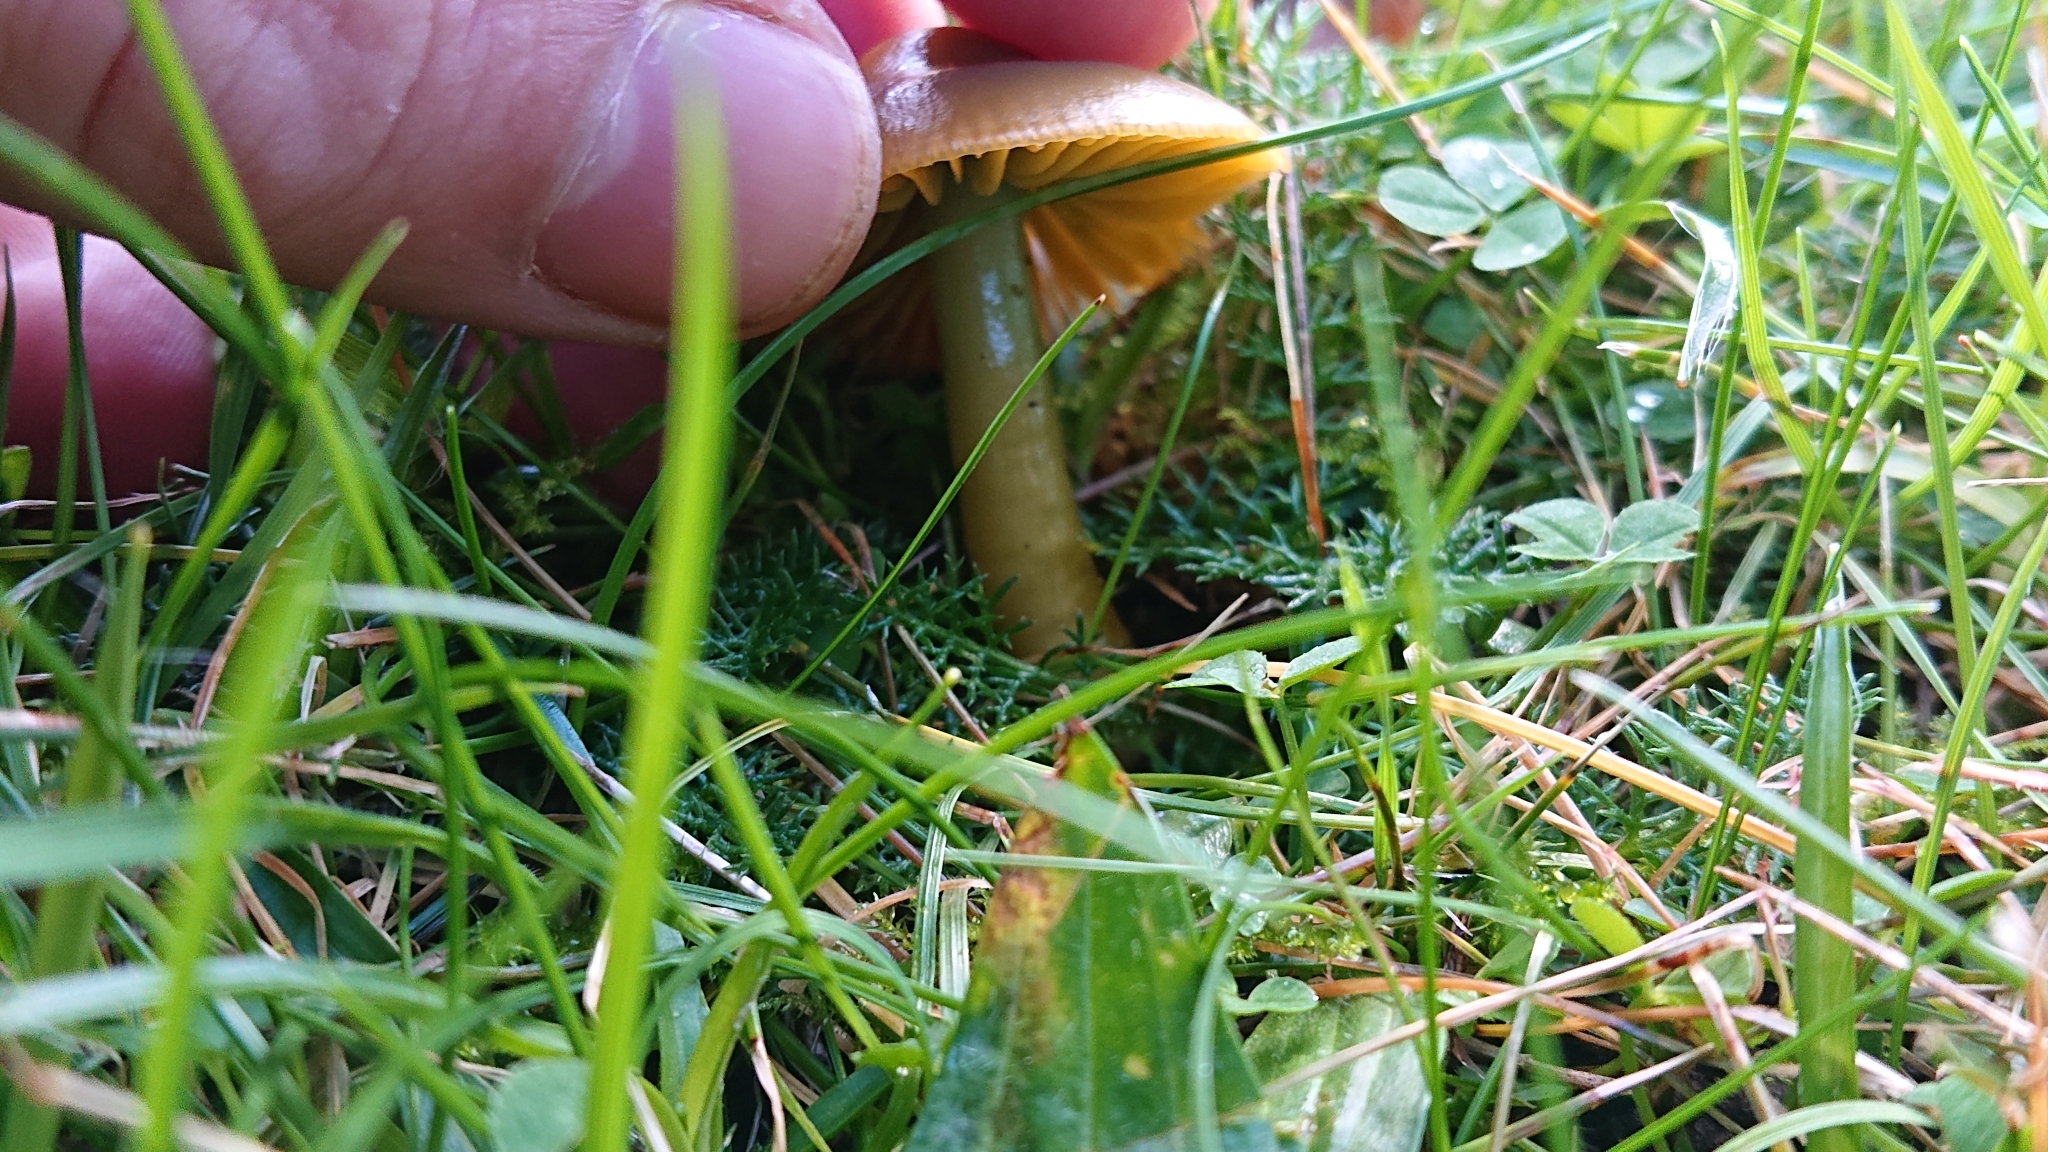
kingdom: Fungi
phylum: Basidiomycota
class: Agaricomycetes
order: Agaricales
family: Hygrophoraceae
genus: Gliophorus
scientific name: Gliophorus psittacinus
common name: Parrot wax-cap
